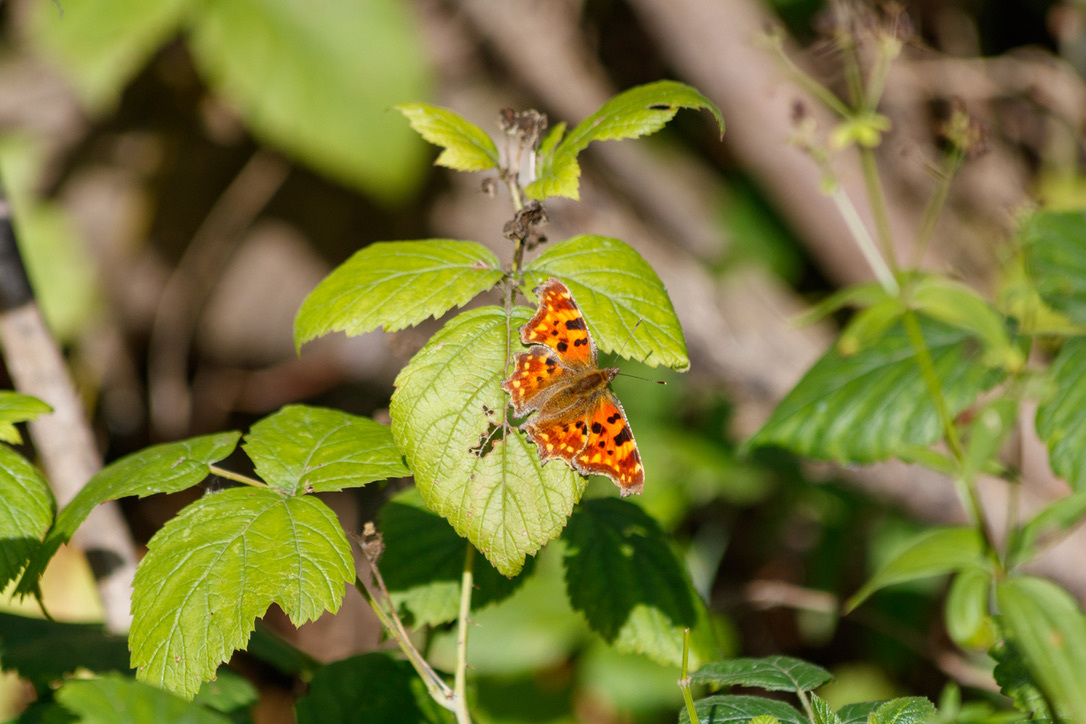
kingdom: Animalia
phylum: Arthropoda
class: Insecta
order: Lepidoptera
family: Nymphalidae
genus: Polygonia
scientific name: Polygonia c-album
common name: Comma
